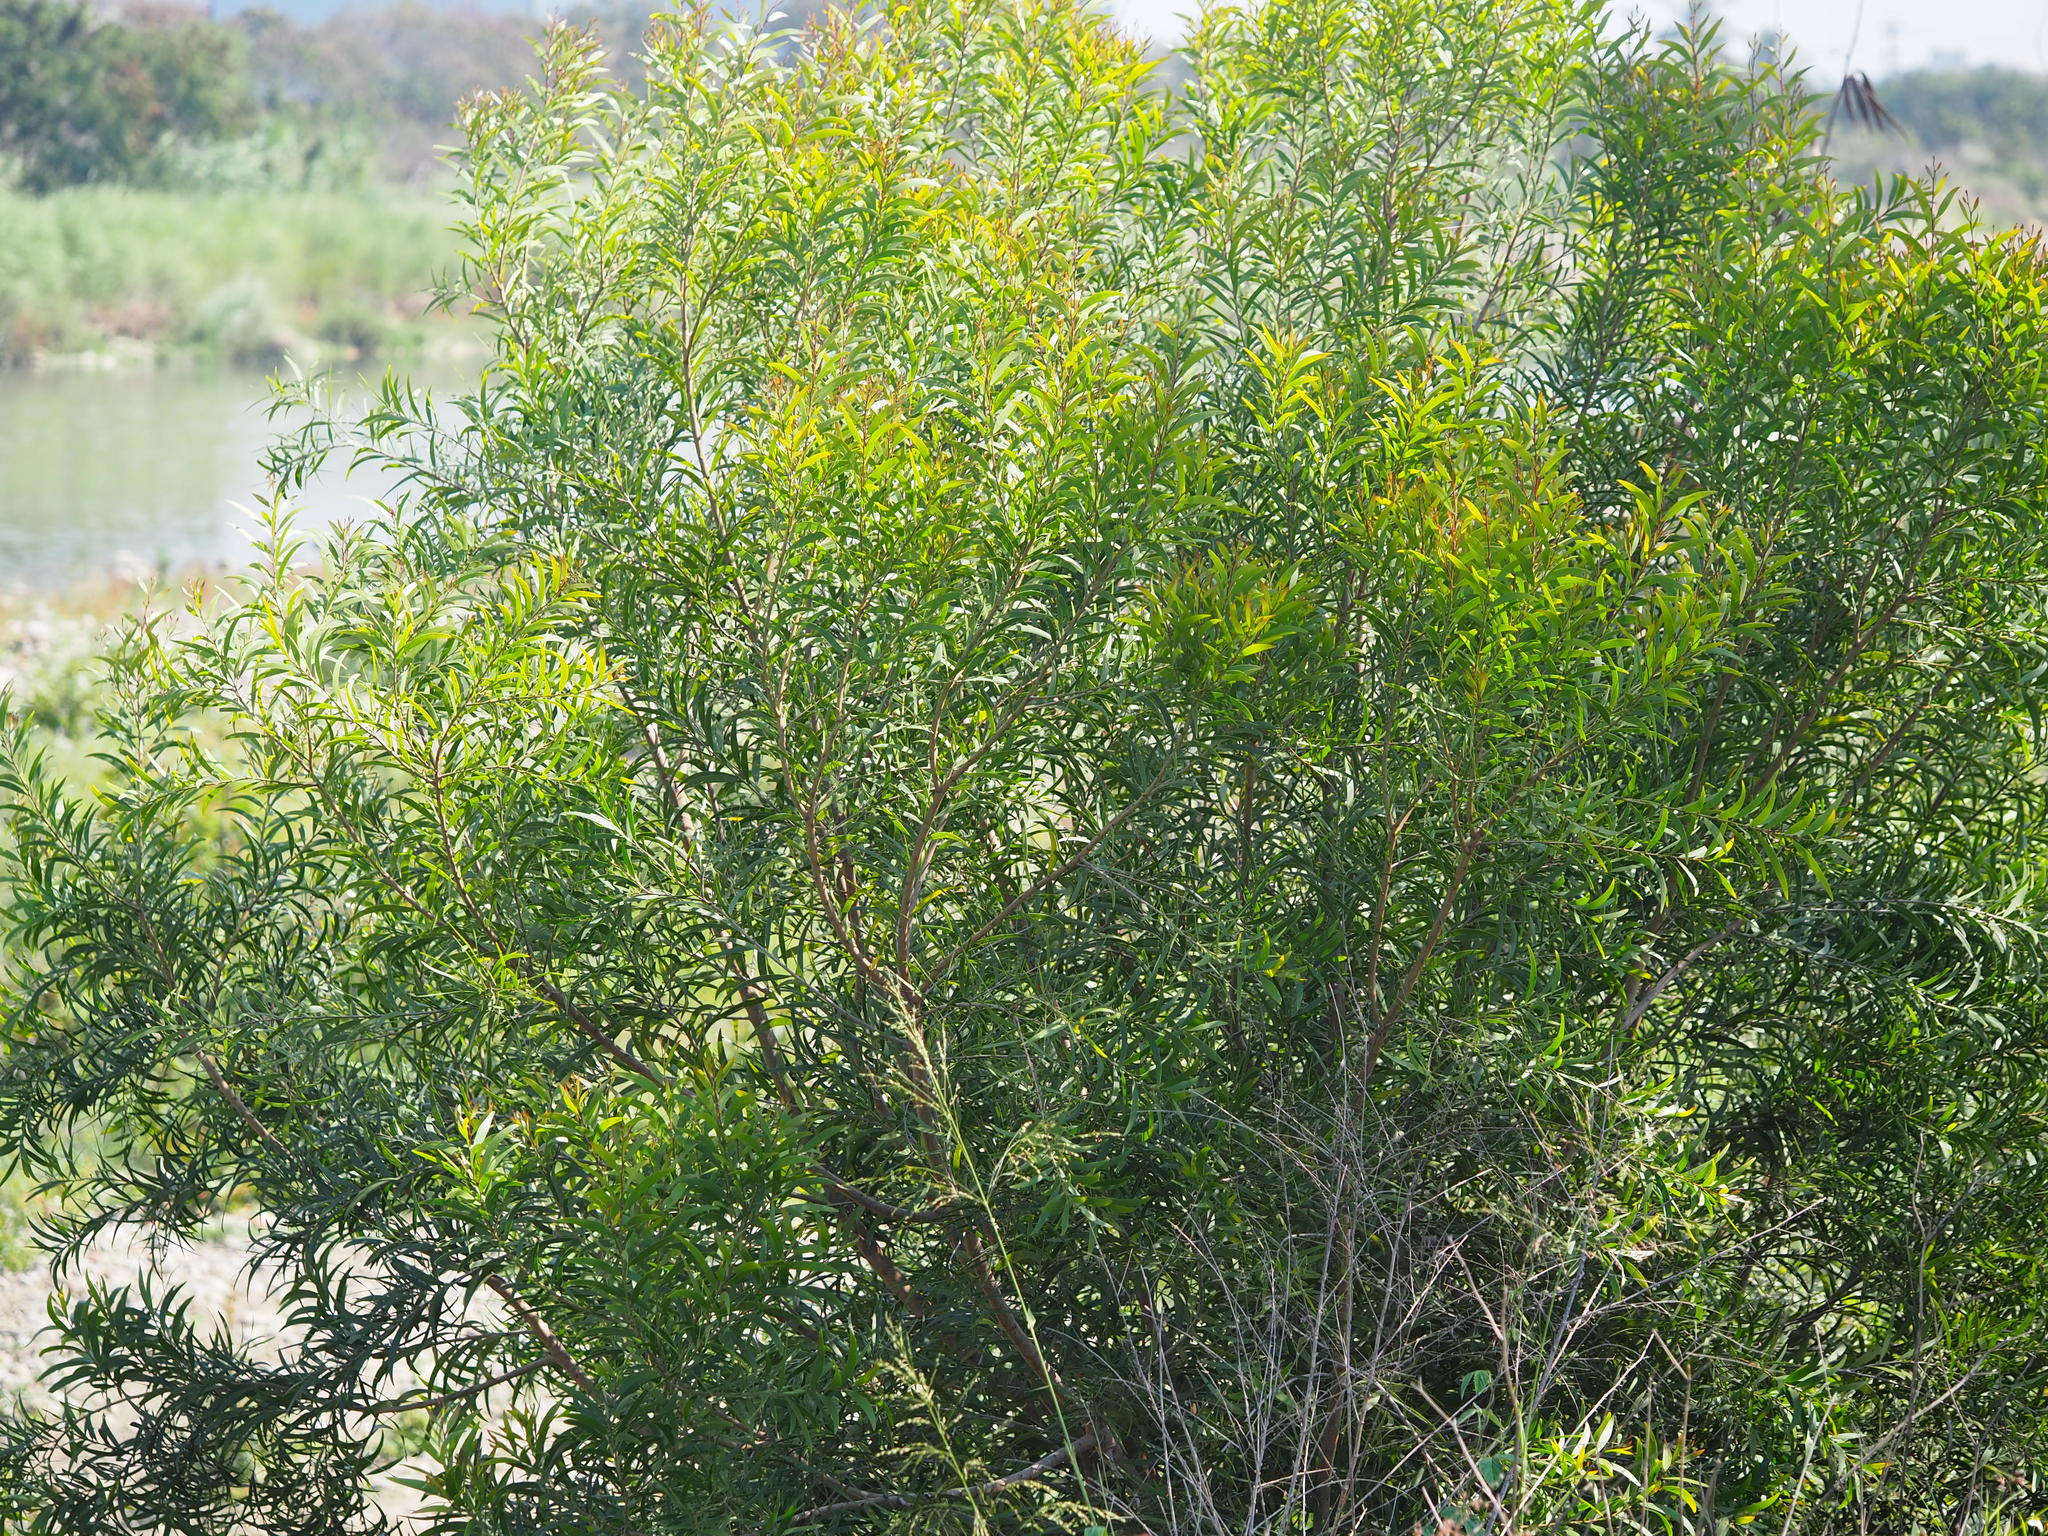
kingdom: Plantae
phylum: Tracheophyta
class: Magnoliopsida
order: Fabales
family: Fabaceae
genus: Acacia
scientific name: Acacia confusa
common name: Formosan koa
